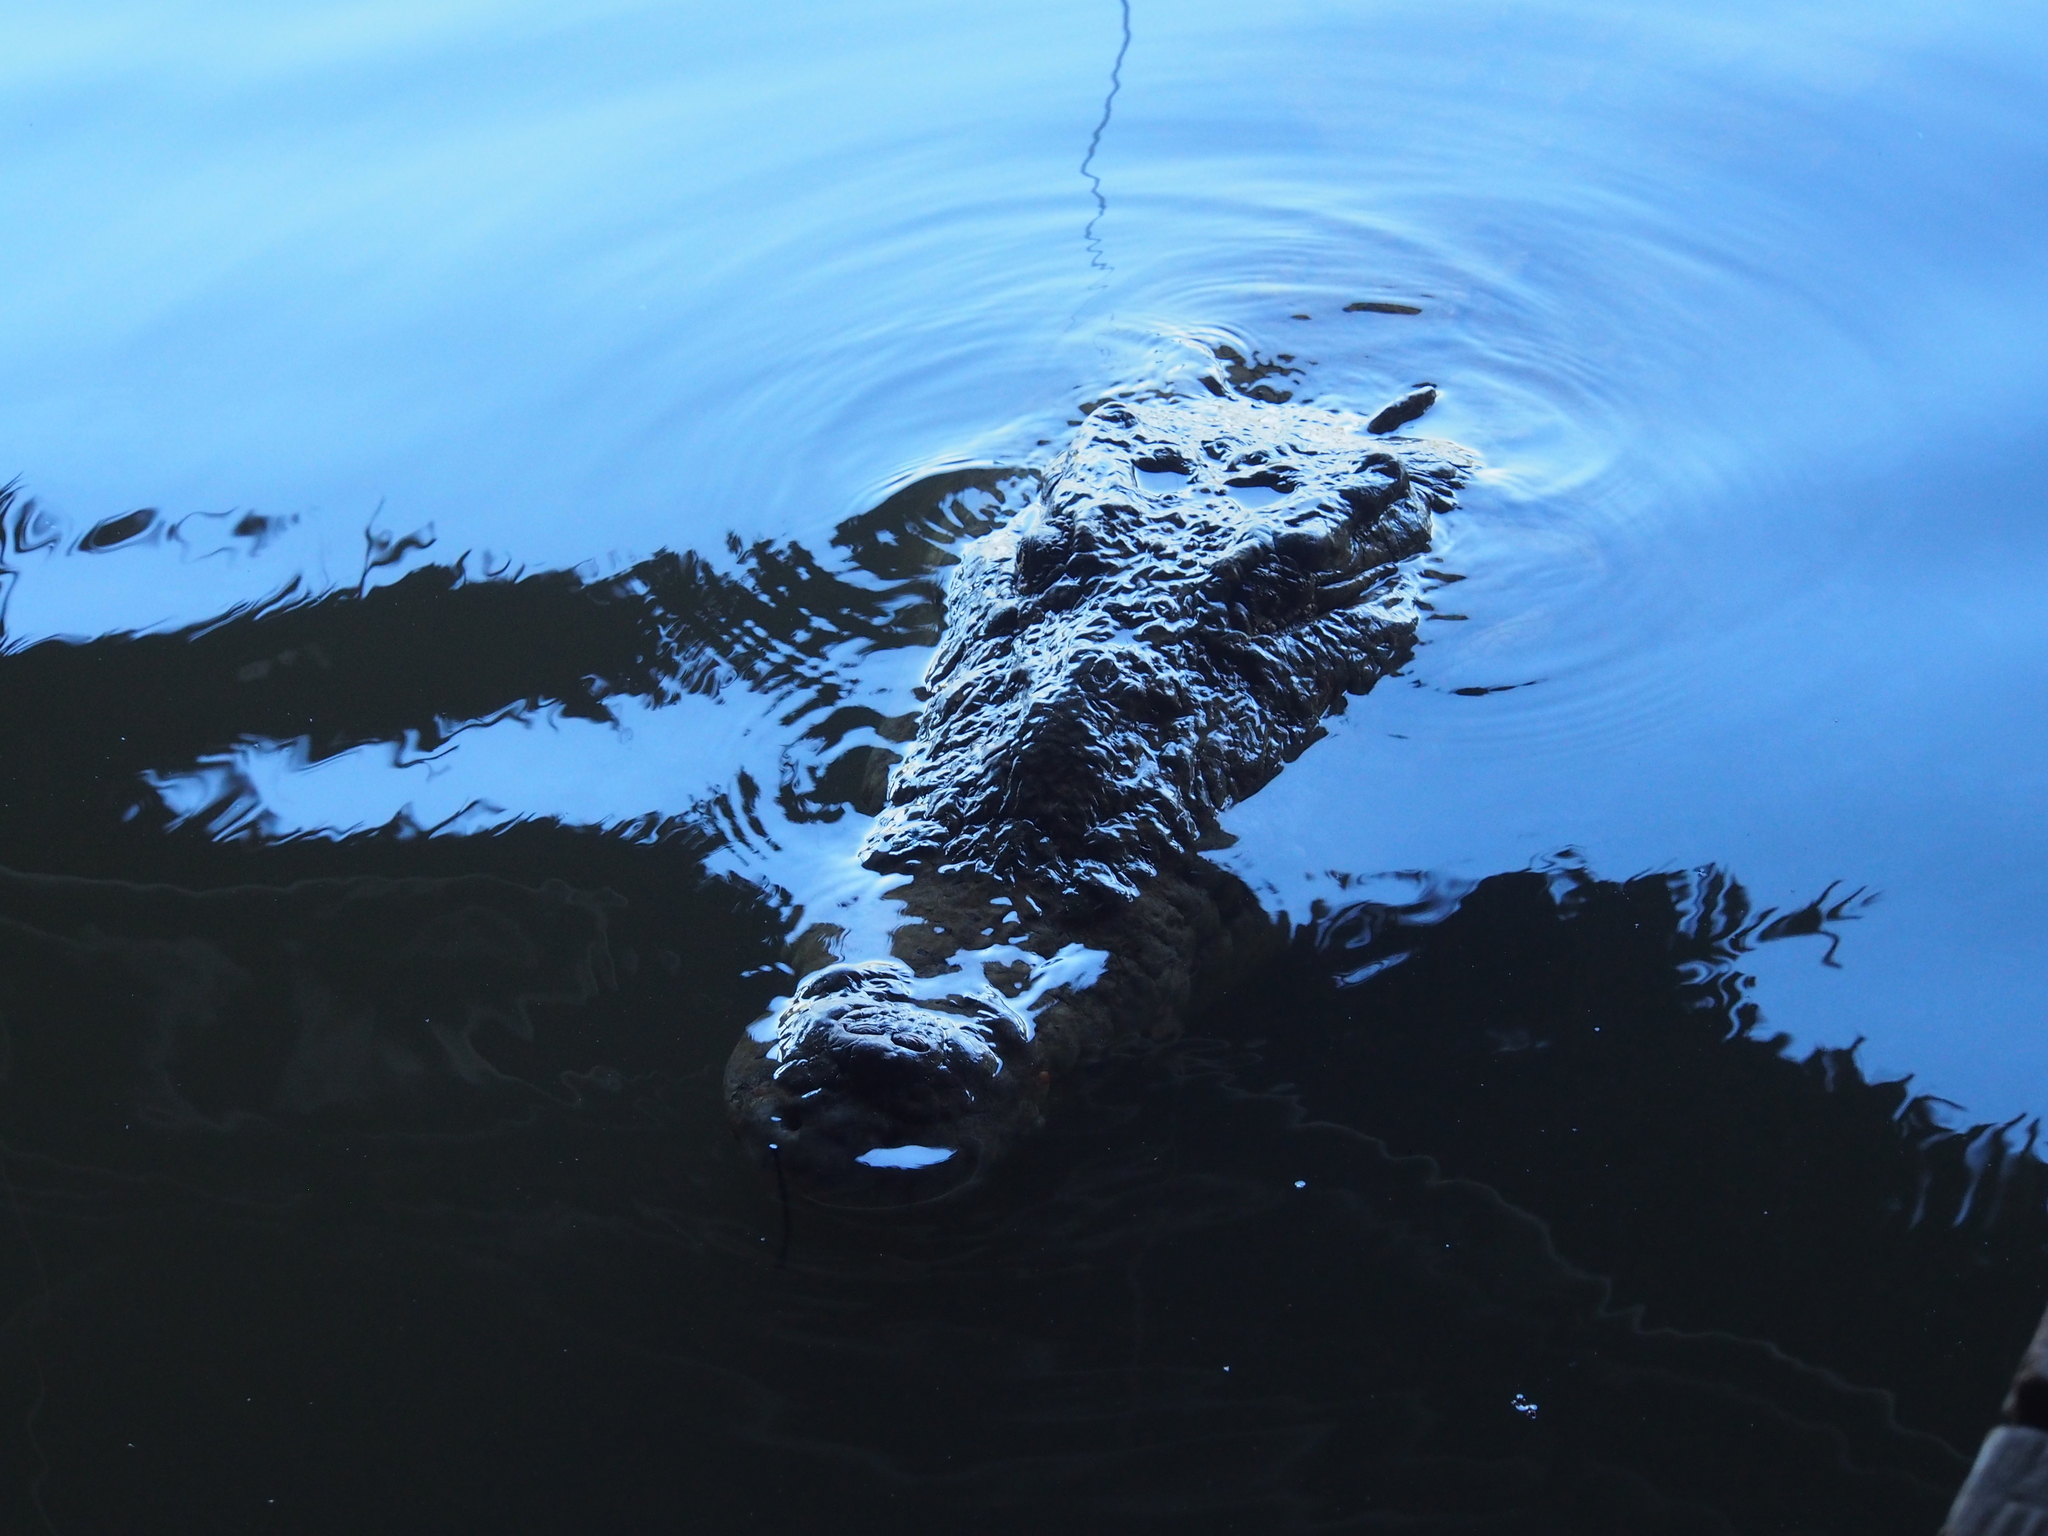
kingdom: Animalia
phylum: Chordata
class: Crocodylia
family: Crocodylidae
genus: Crocodylus
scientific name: Crocodylus acutus
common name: American crocodile
